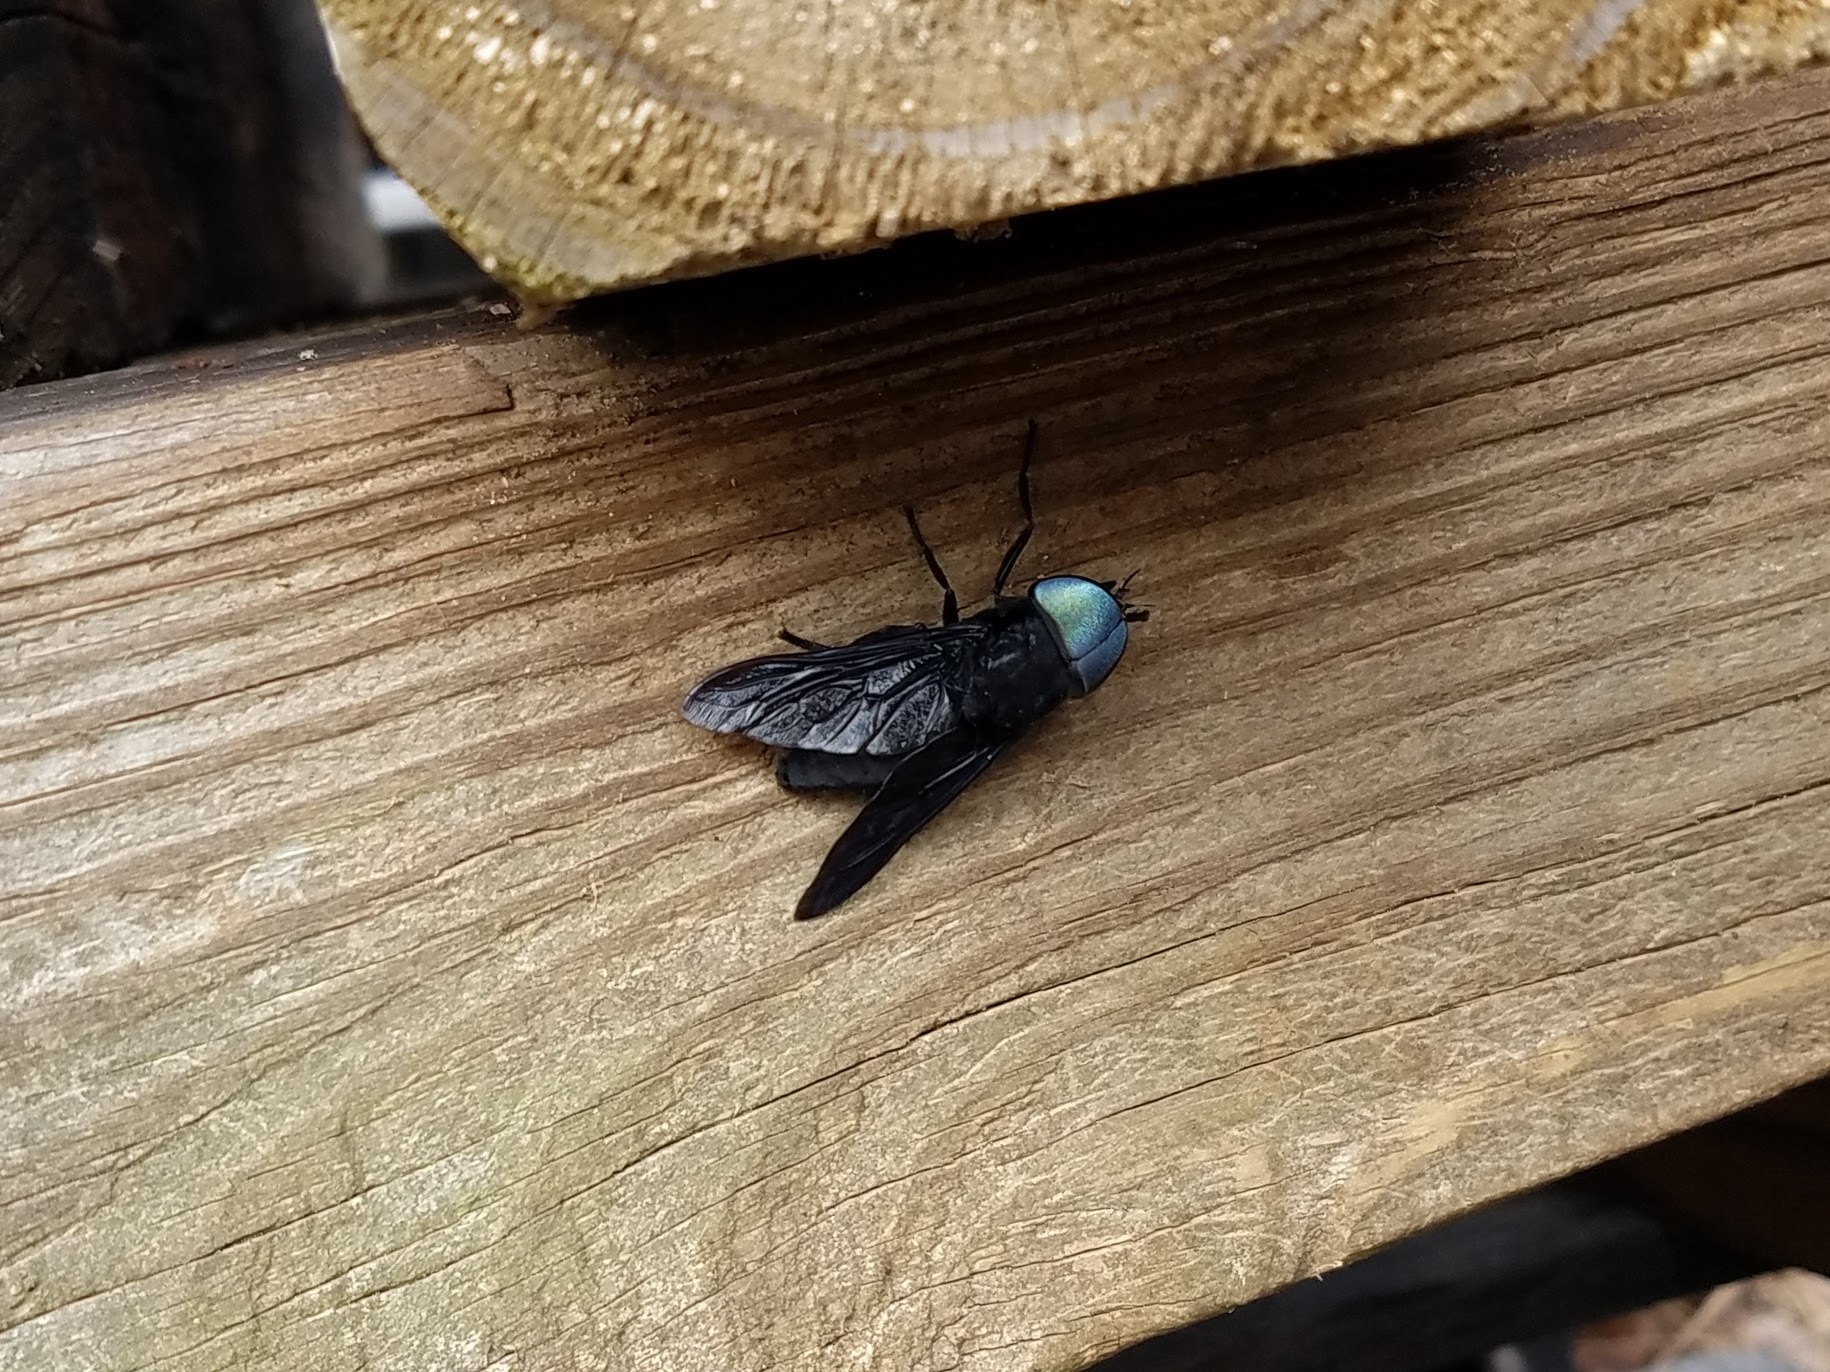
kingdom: Animalia
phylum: Arthropoda
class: Insecta
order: Diptera
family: Tabanidae
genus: Tabanus
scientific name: Tabanus atratus
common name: Black horse fly
